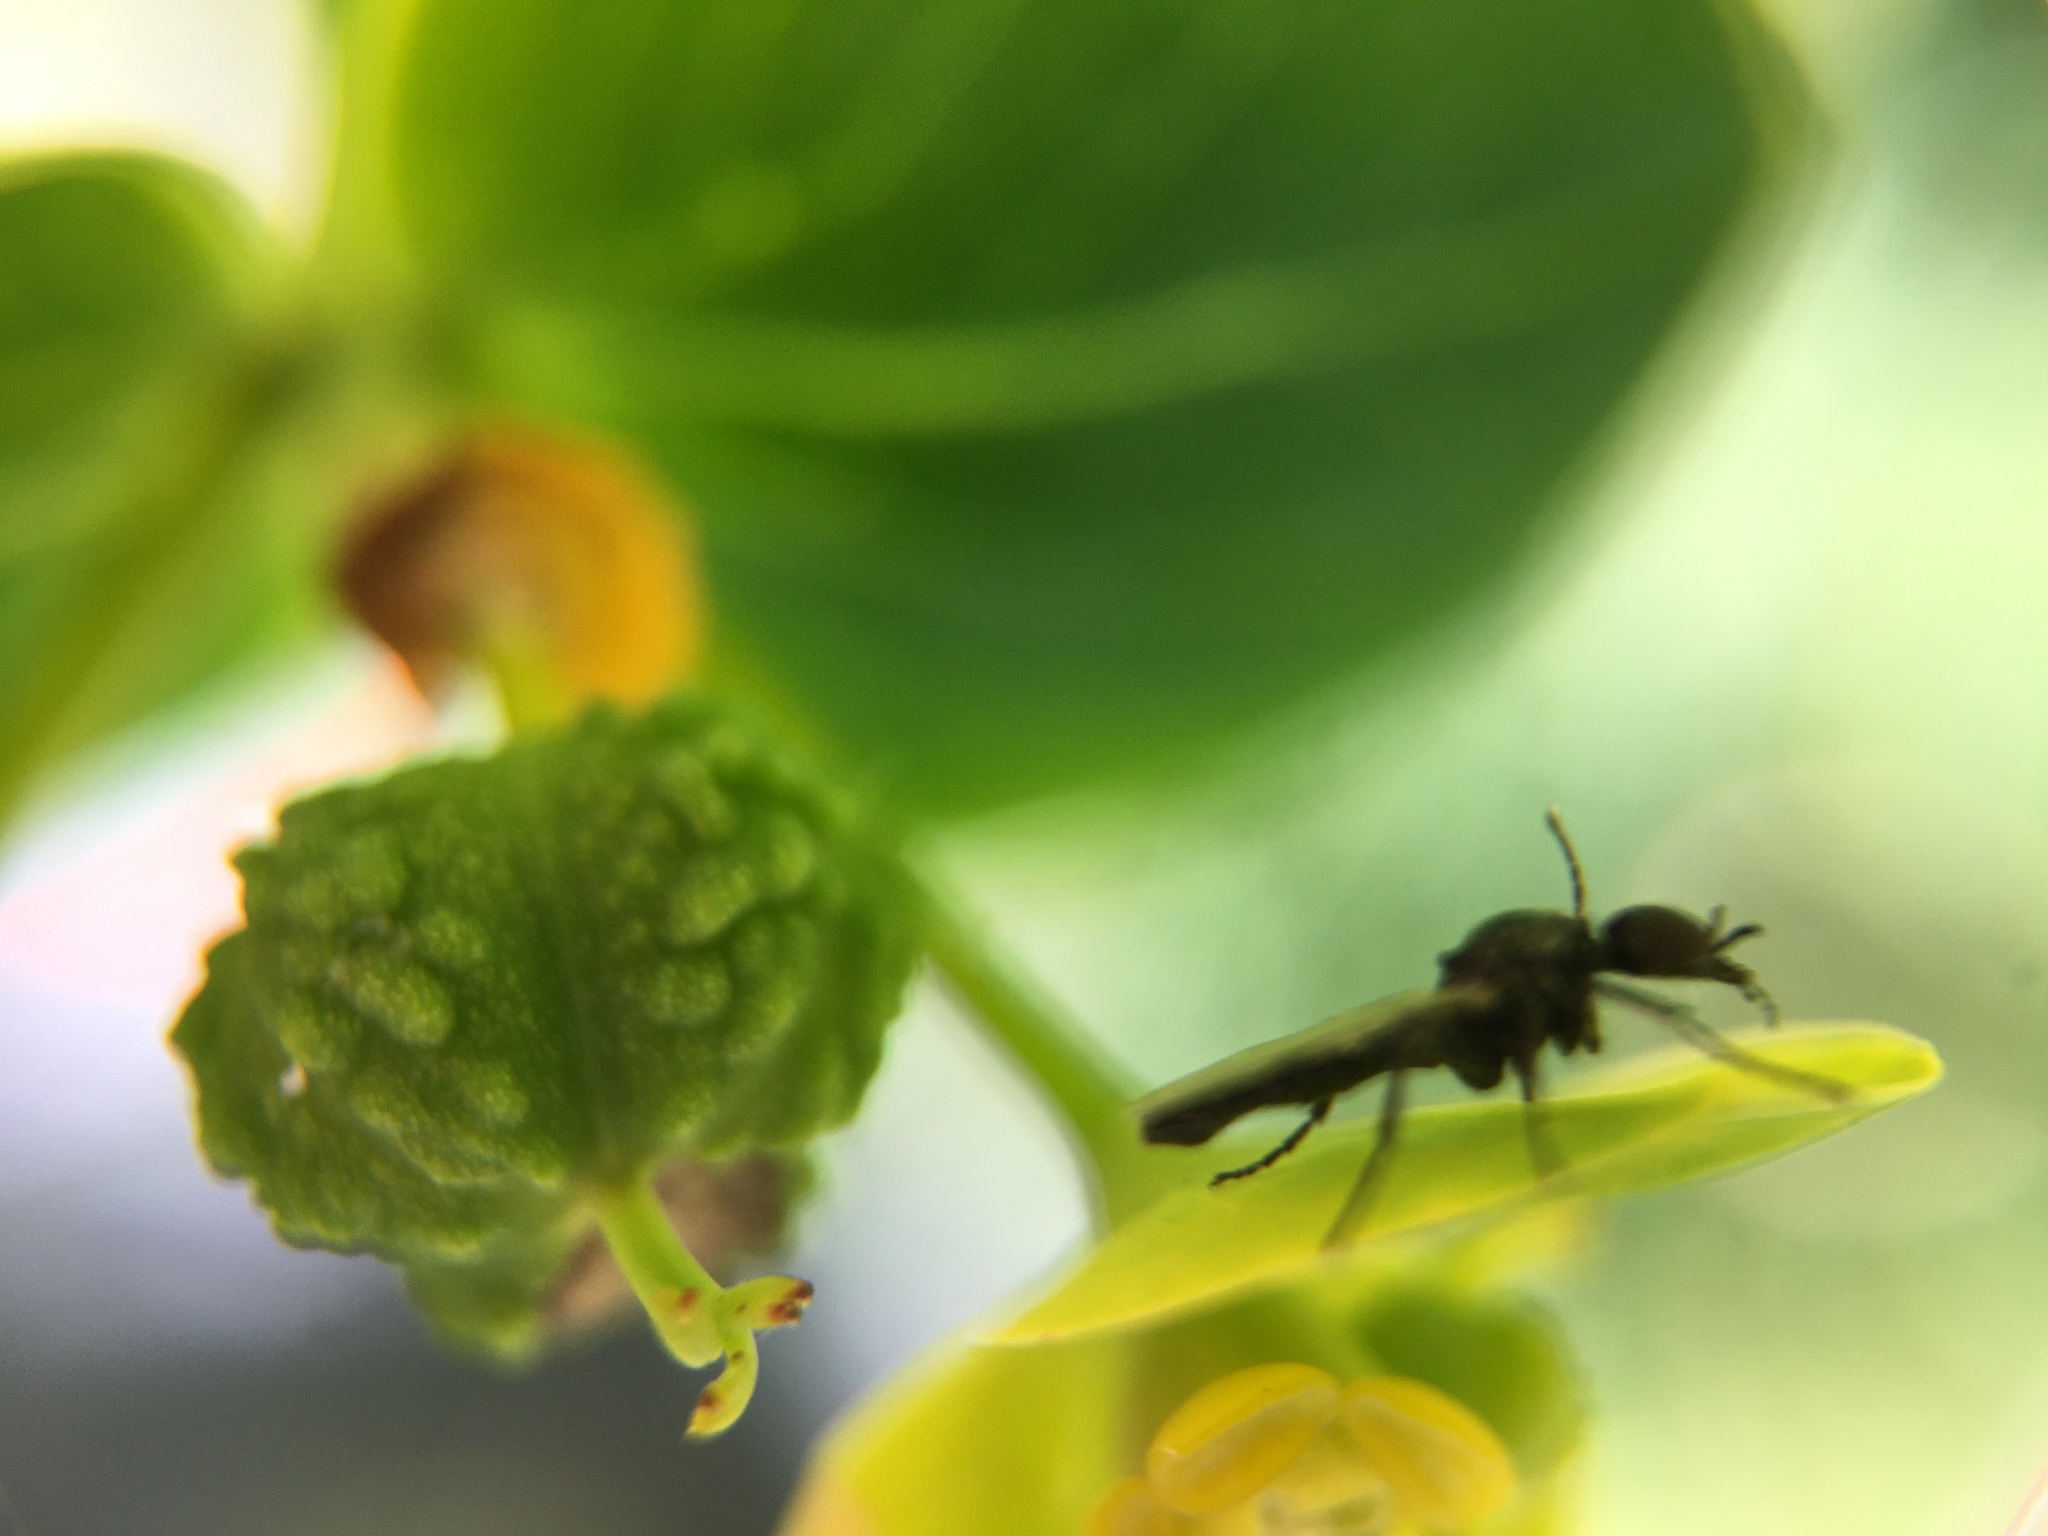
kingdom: Animalia
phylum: Arthropoda
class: Insecta
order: Diptera
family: Bibionidae
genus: Dilophus
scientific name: Dilophus
